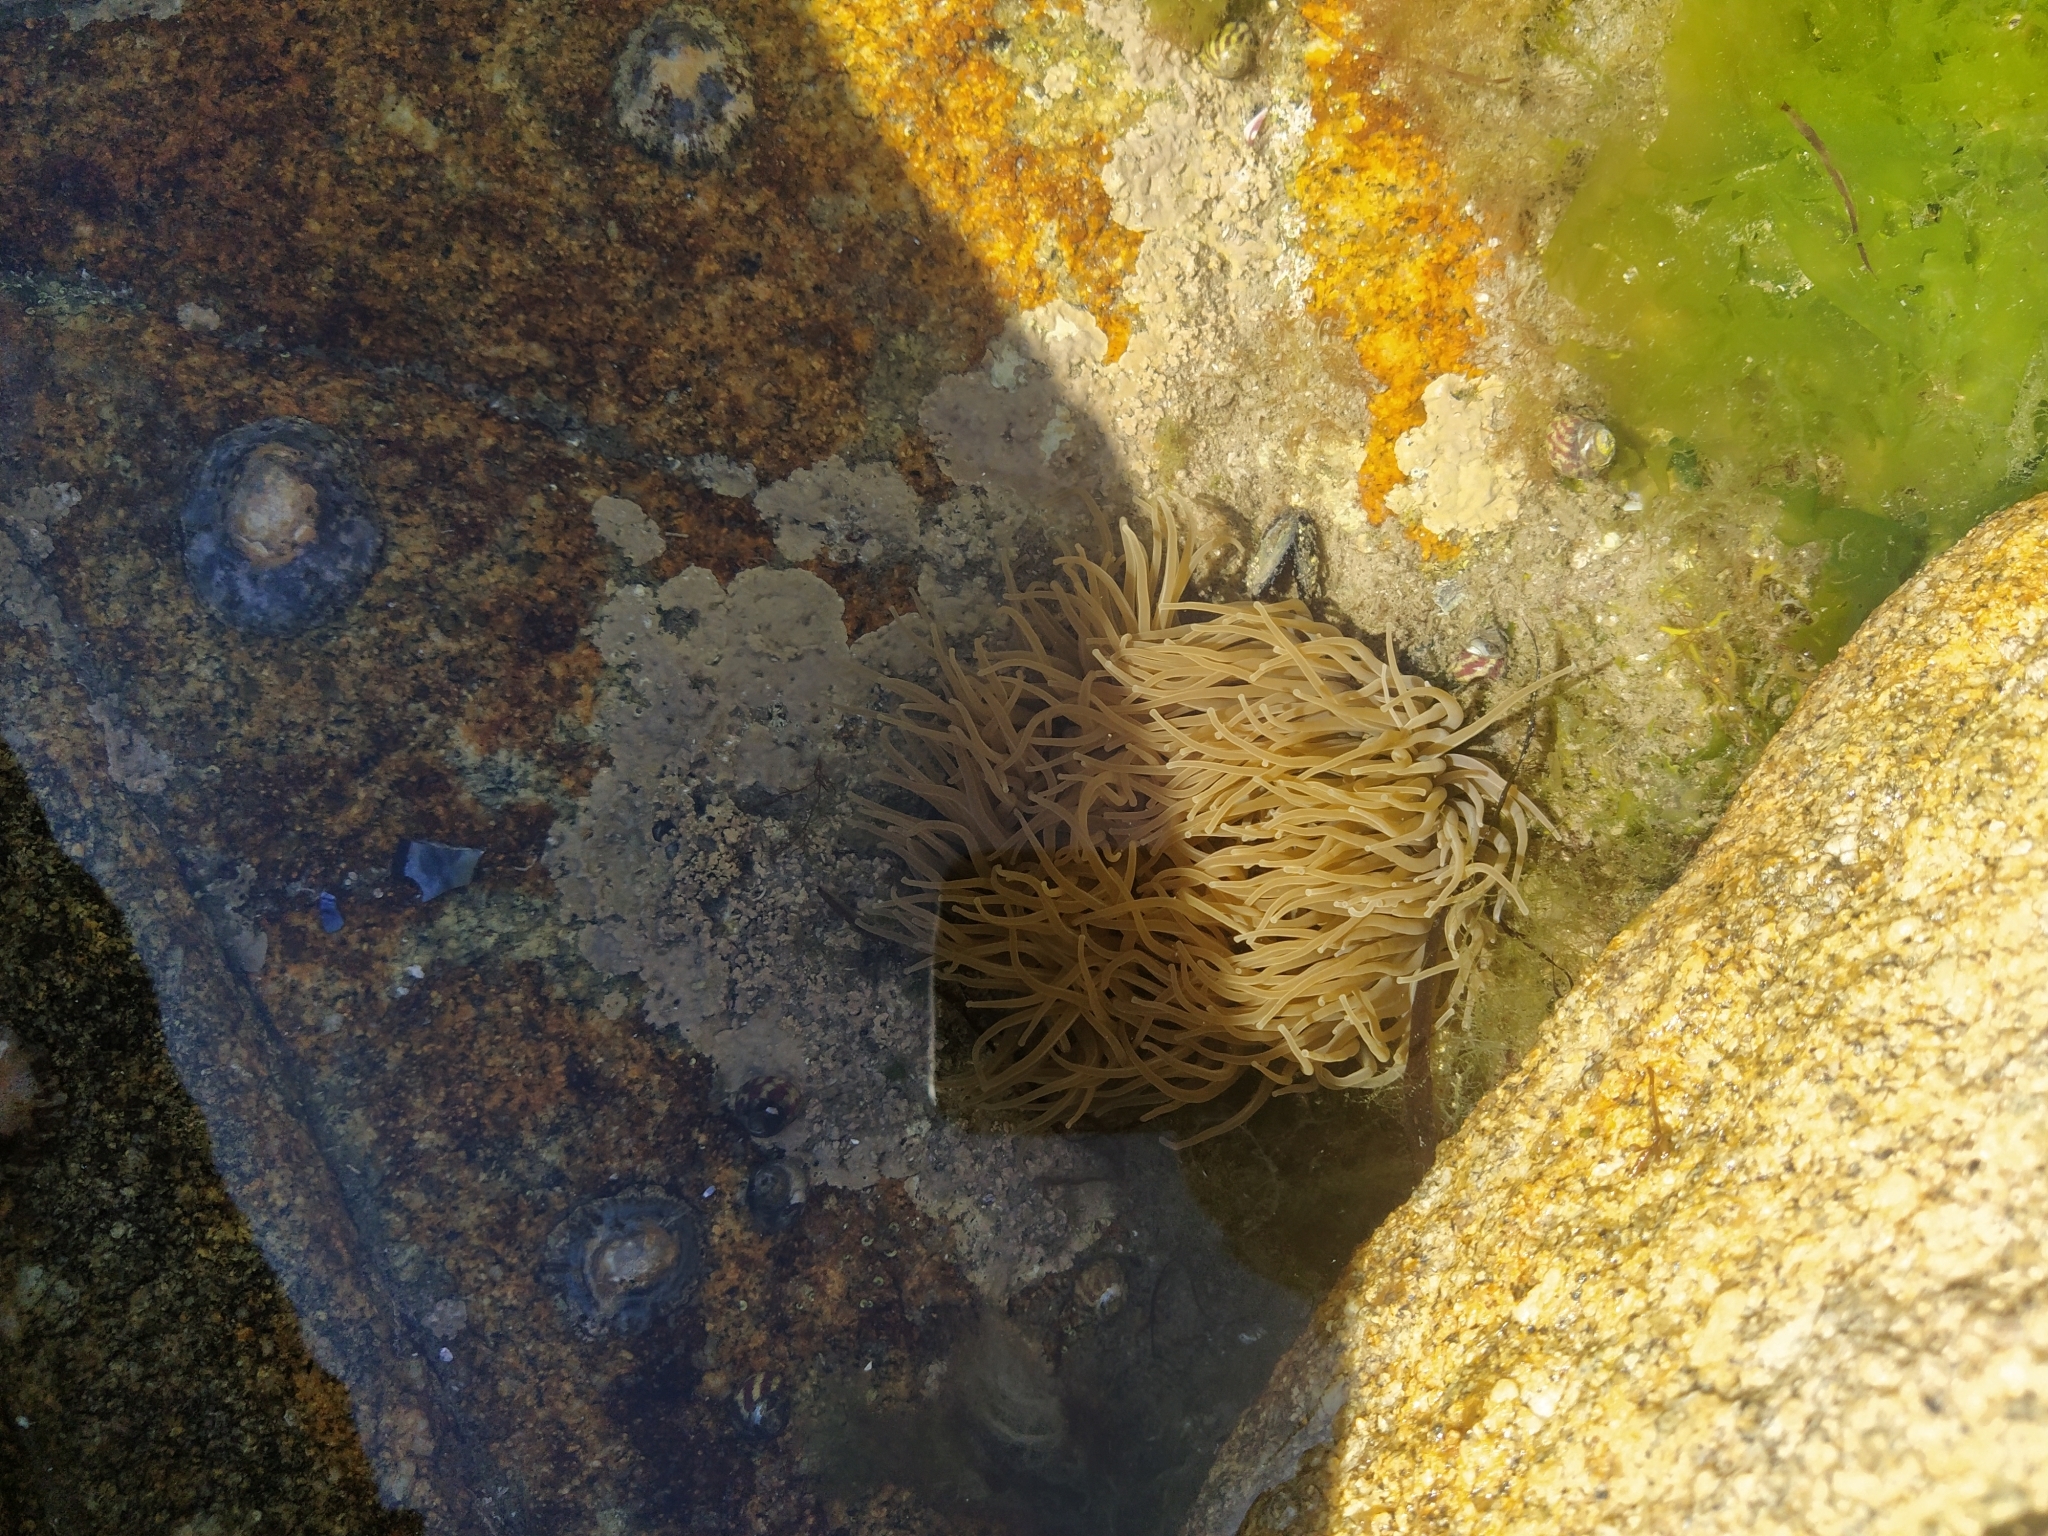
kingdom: Animalia
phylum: Cnidaria
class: Anthozoa
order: Actiniaria
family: Actiniidae
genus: Anemonia
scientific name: Anemonia viridis
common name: Snakelocks anemone
